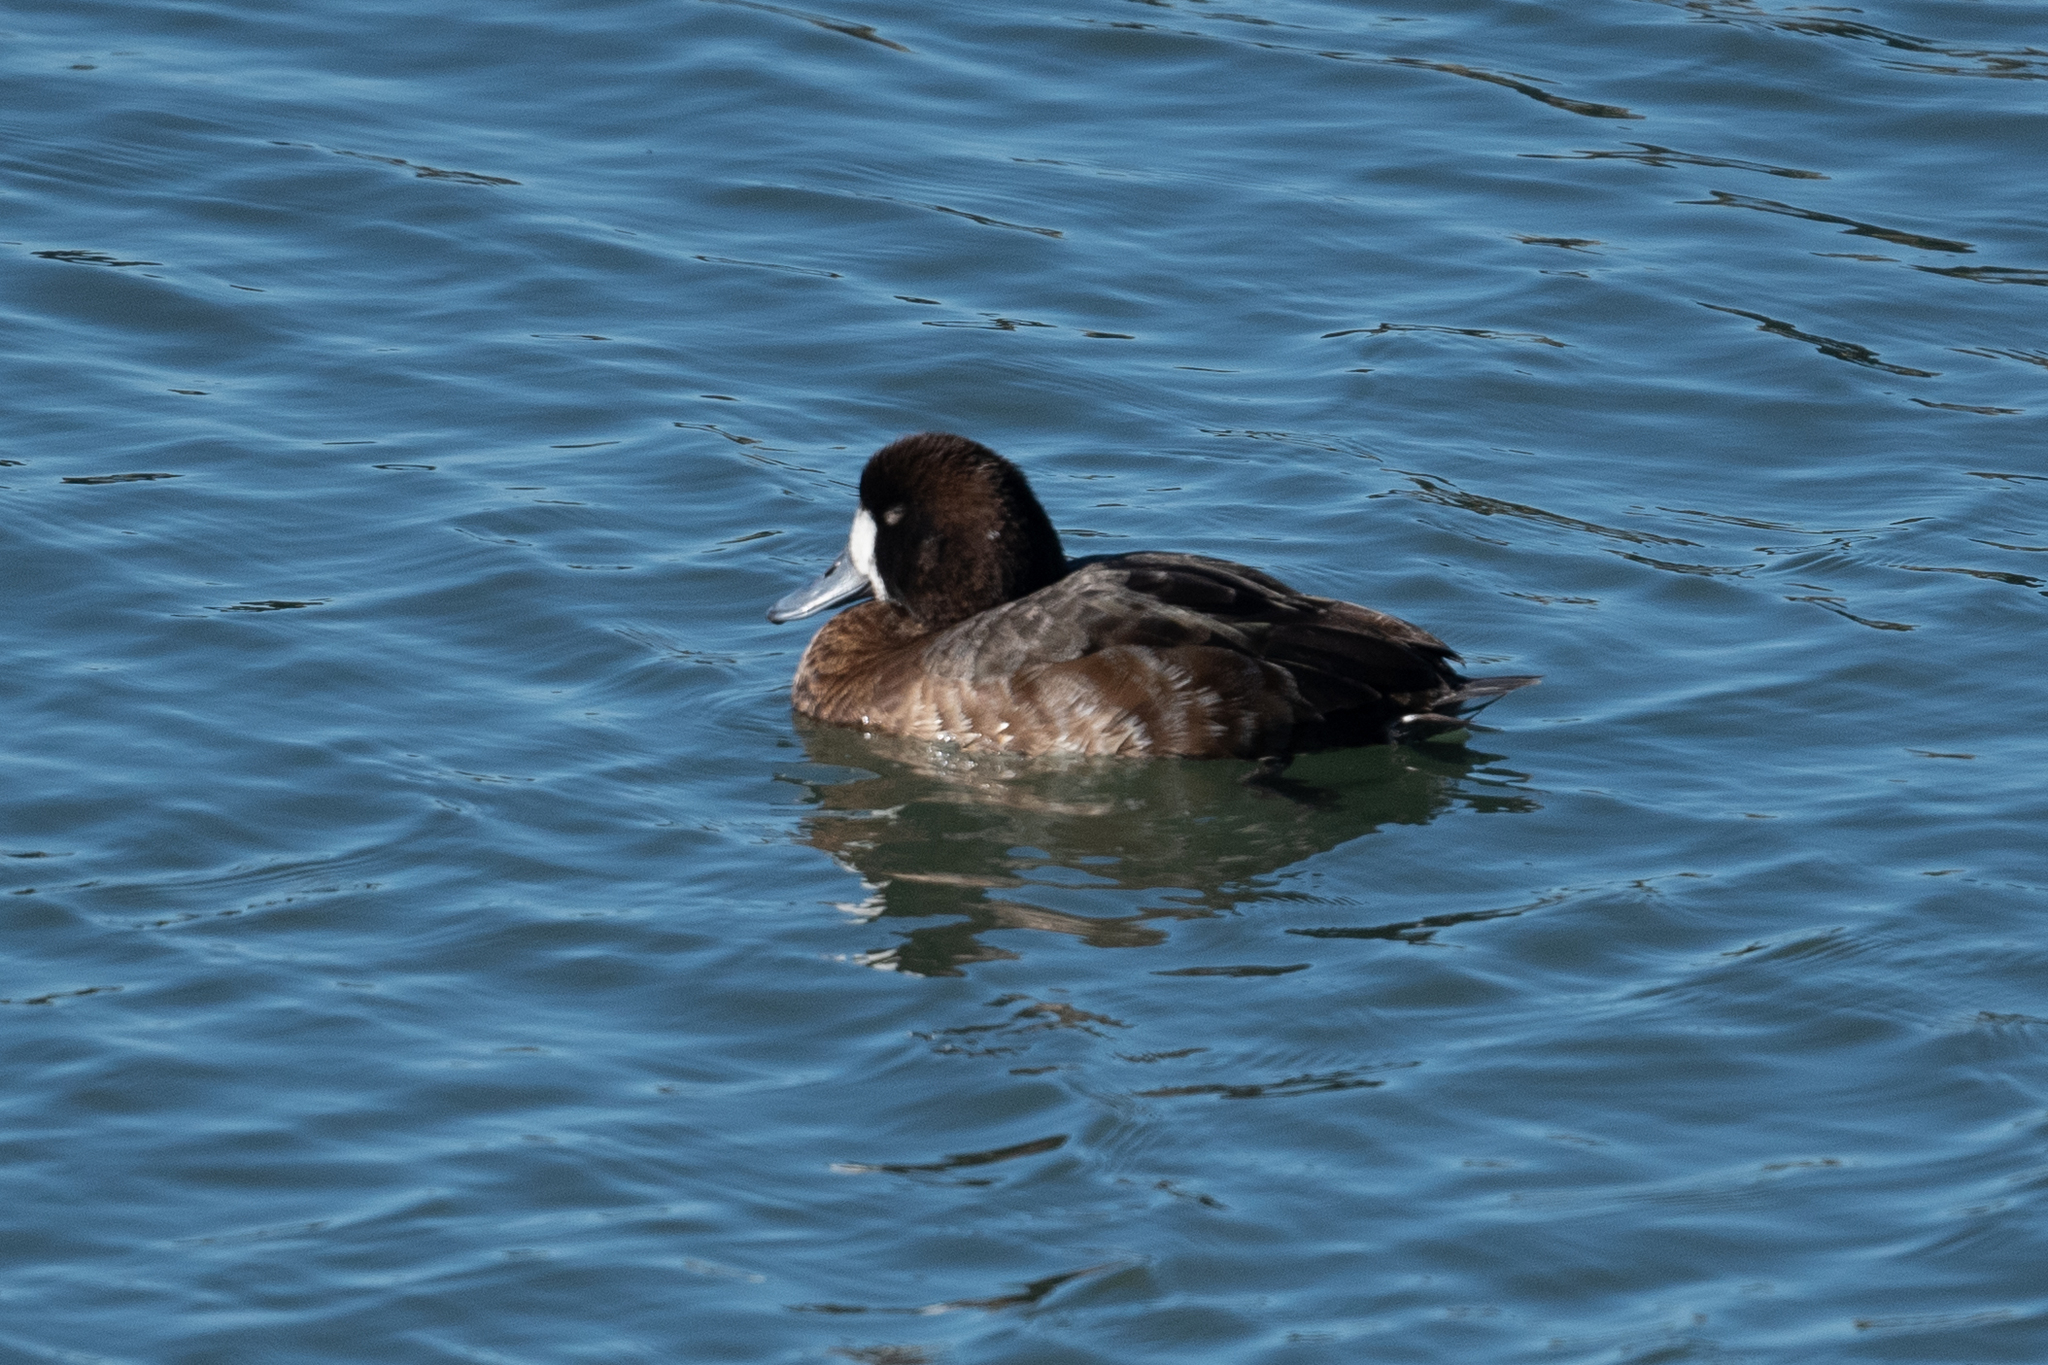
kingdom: Animalia
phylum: Chordata
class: Aves
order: Anseriformes
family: Anatidae
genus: Aythya
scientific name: Aythya marila
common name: Greater scaup
